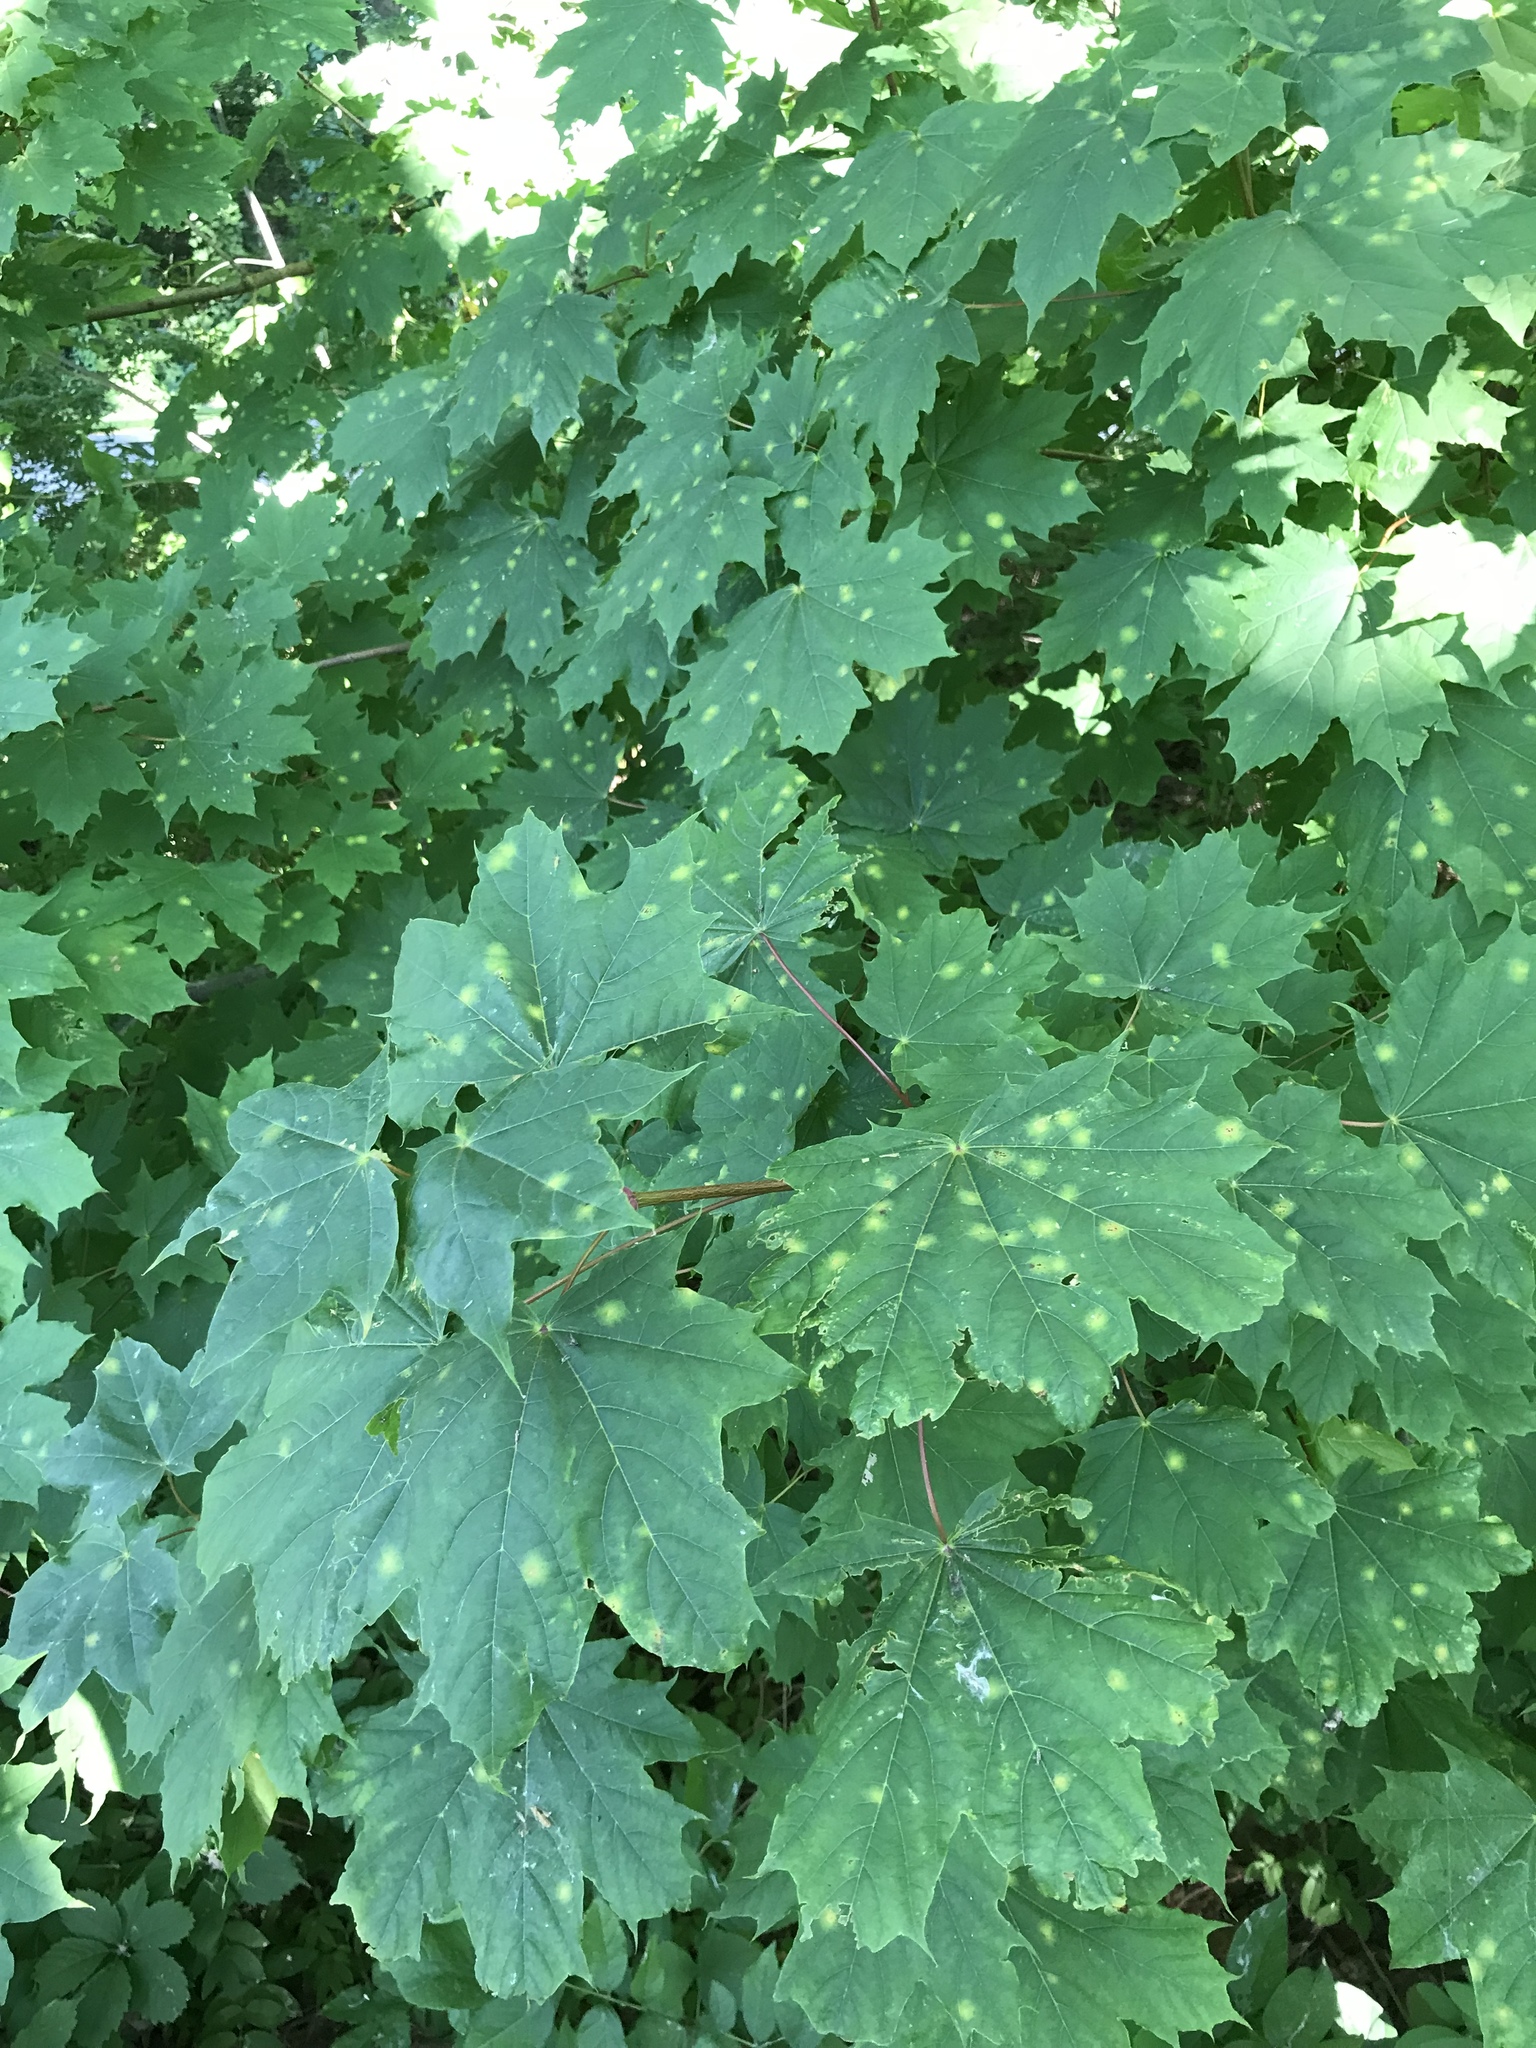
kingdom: Plantae
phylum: Tracheophyta
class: Magnoliopsida
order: Sapindales
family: Sapindaceae
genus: Acer
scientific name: Acer platanoides
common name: Norway maple
